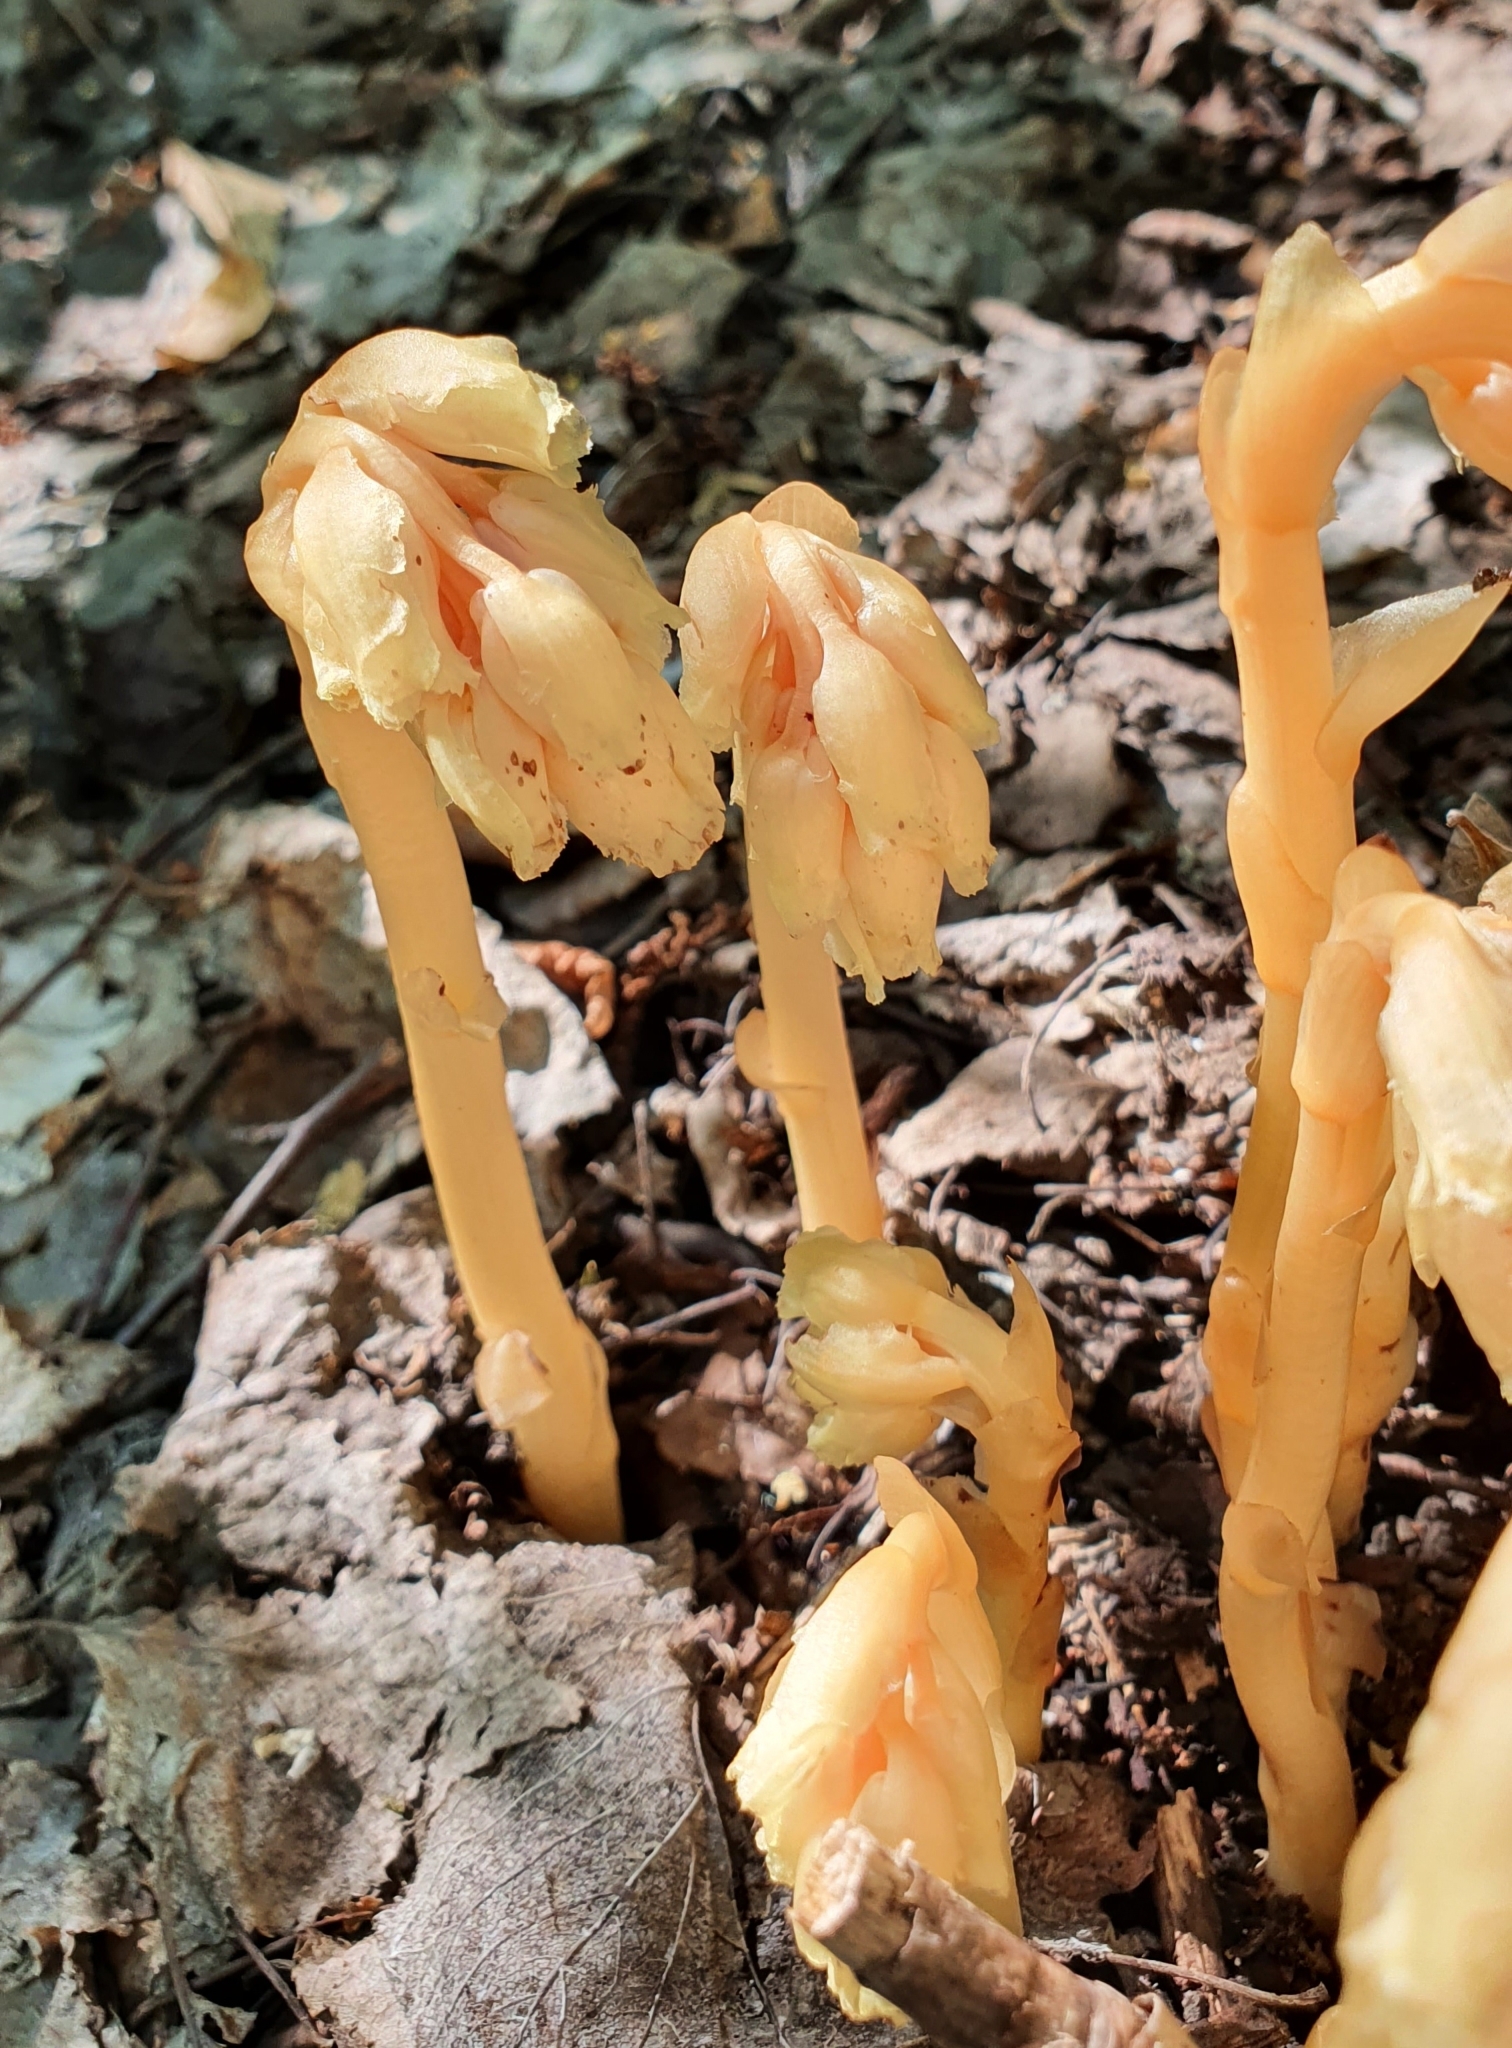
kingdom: Plantae
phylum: Tracheophyta
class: Magnoliopsida
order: Ericales
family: Ericaceae
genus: Hypopitys
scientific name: Hypopitys monotropa
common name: Yellow bird's-nest
